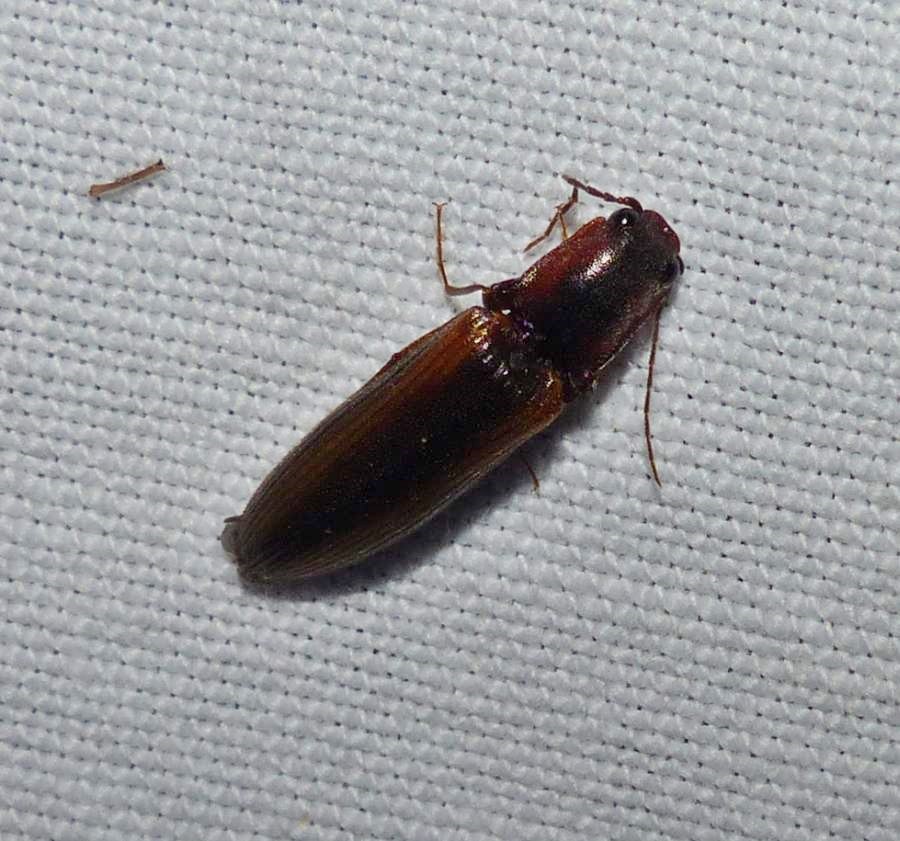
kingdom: Animalia
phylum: Arthropoda
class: Insecta
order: Coleoptera
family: Elateridae
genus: Athous
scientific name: Athous rufifrons
